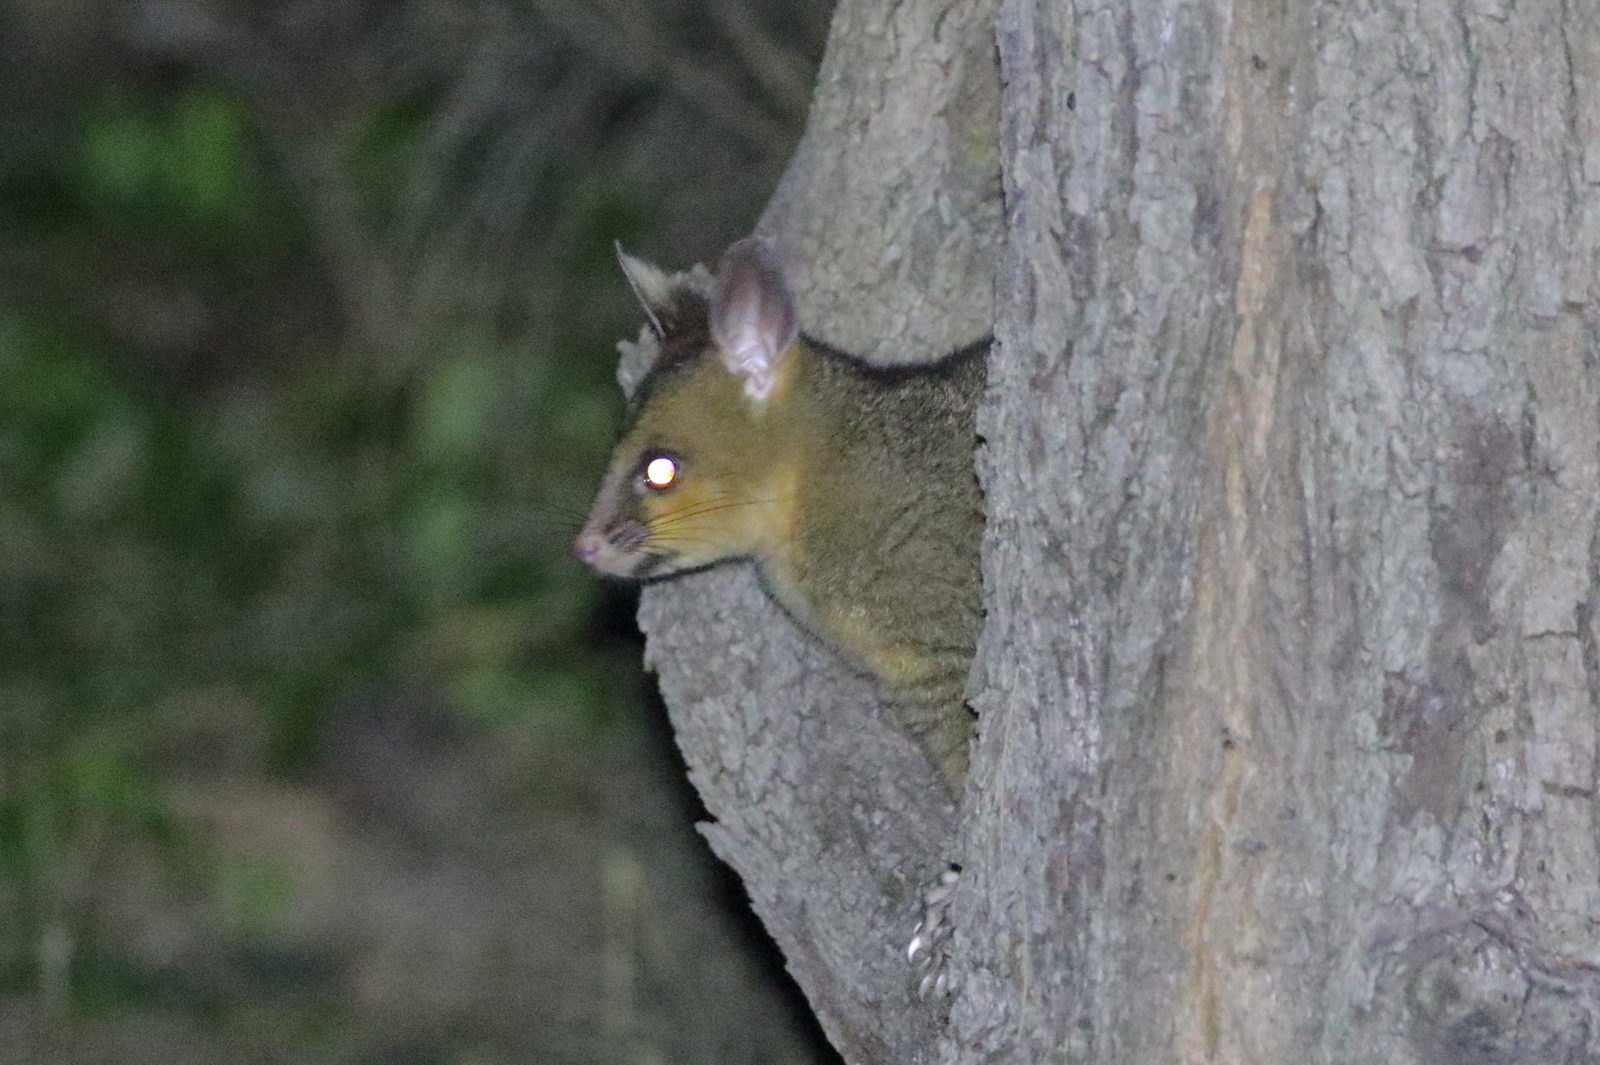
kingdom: Animalia
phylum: Chordata
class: Mammalia
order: Diprotodontia
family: Phalangeridae
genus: Trichosurus
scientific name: Trichosurus vulpecula
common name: Common brushtail
